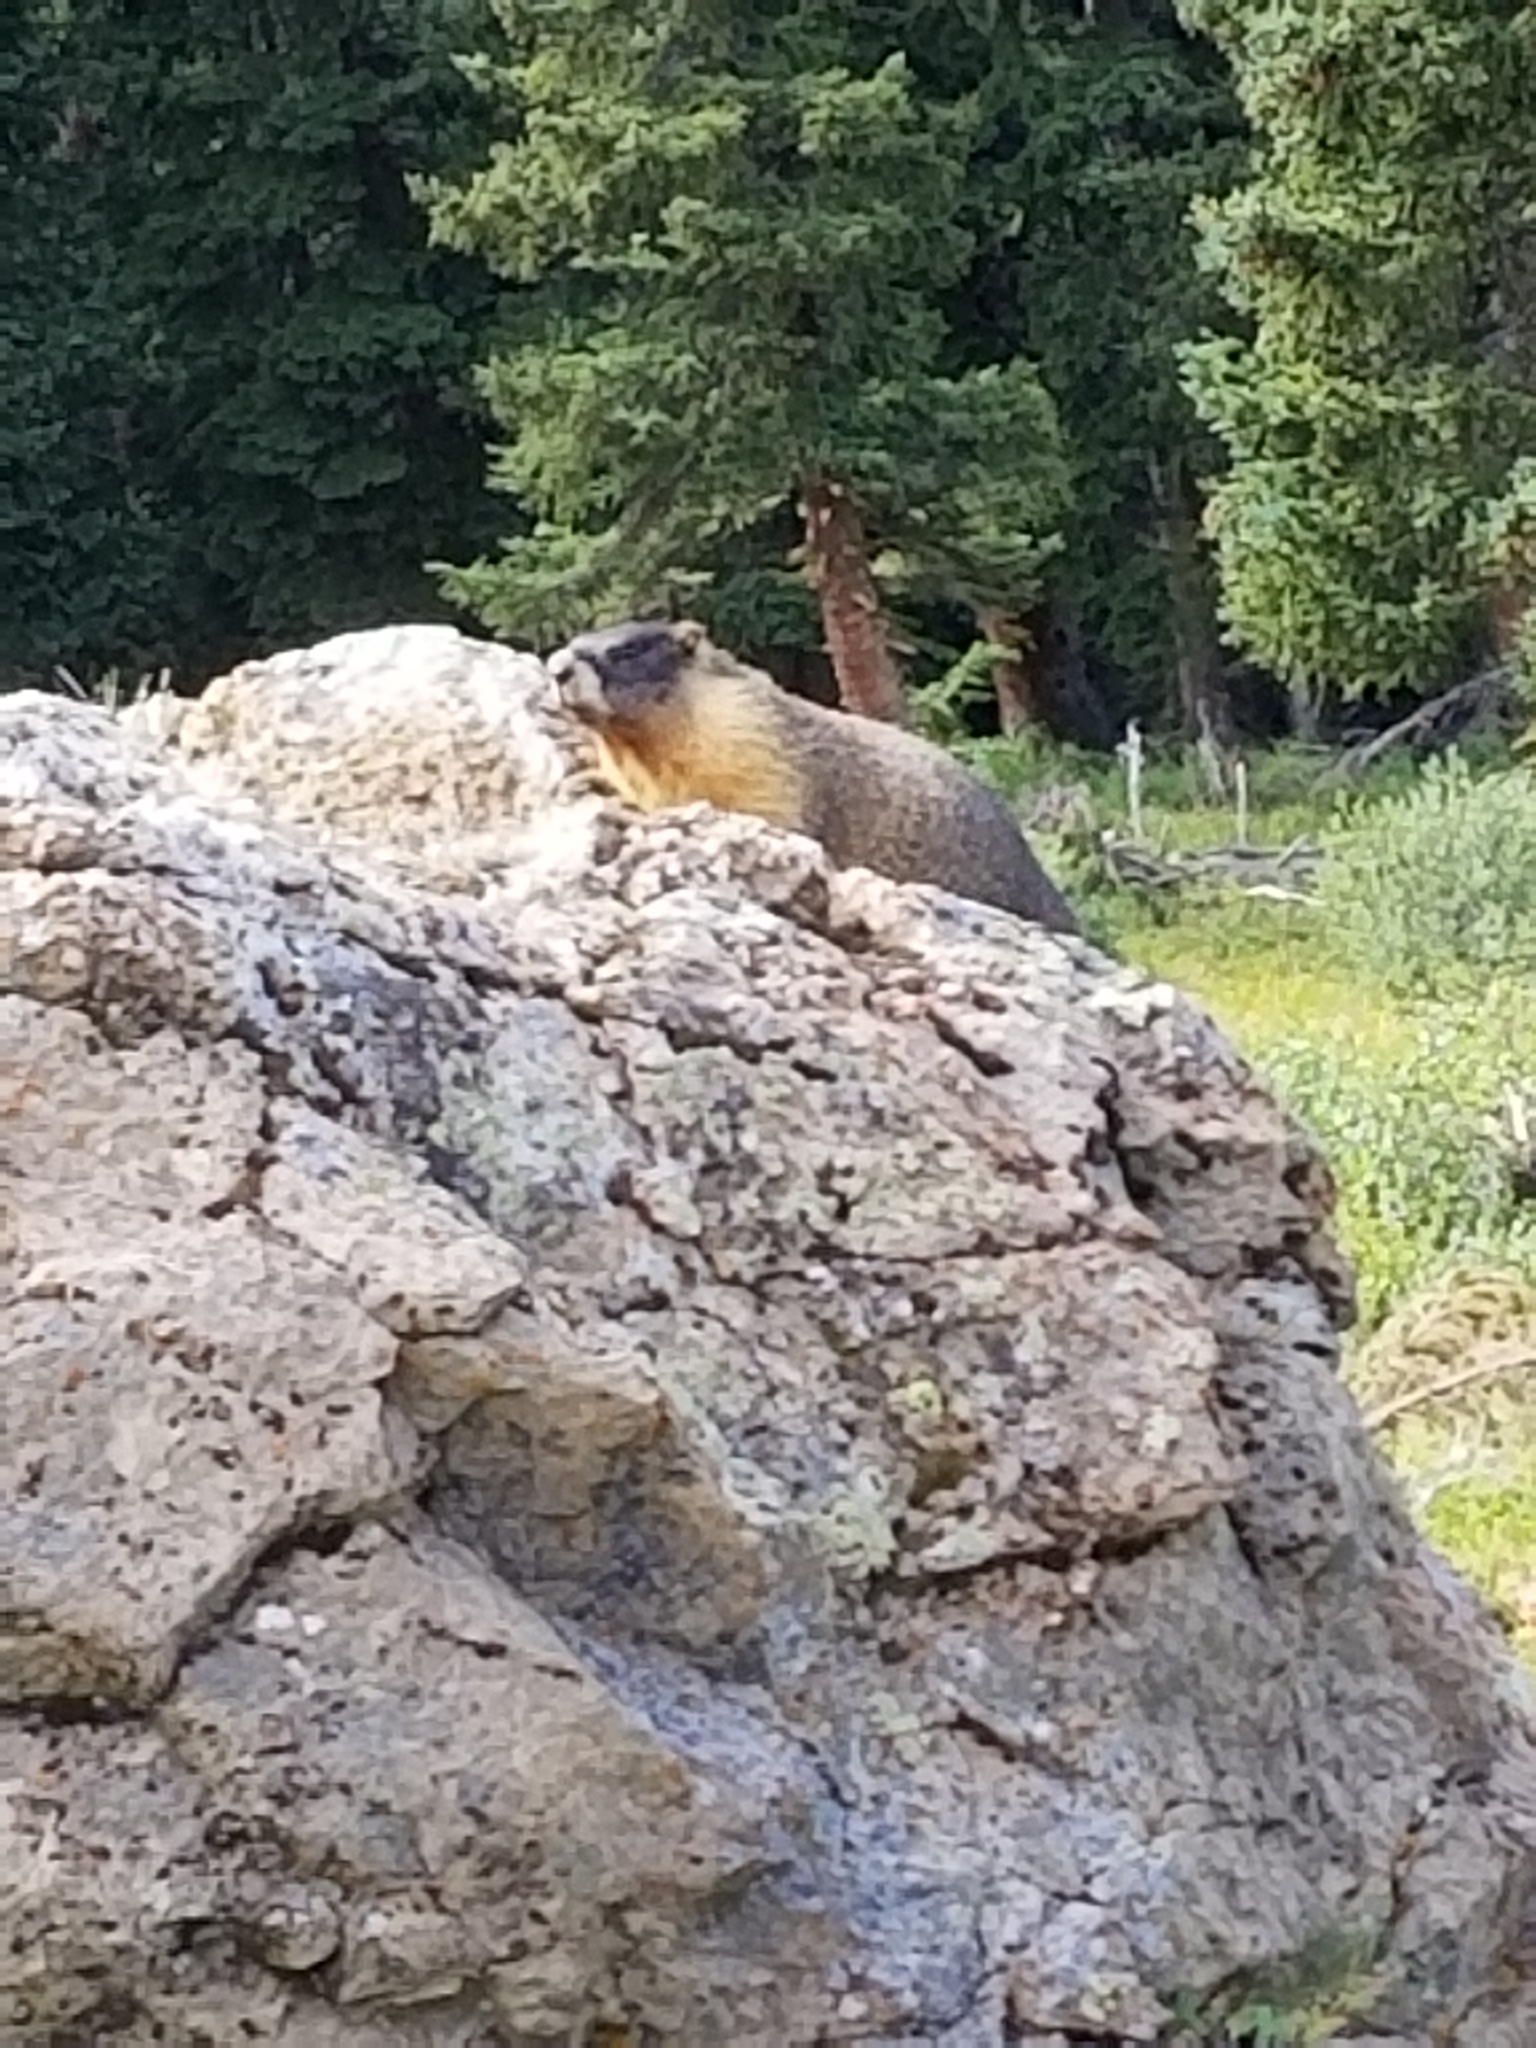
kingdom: Animalia
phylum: Chordata
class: Mammalia
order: Rodentia
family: Sciuridae
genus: Marmota
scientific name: Marmota flaviventris
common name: Yellow-bellied marmot
